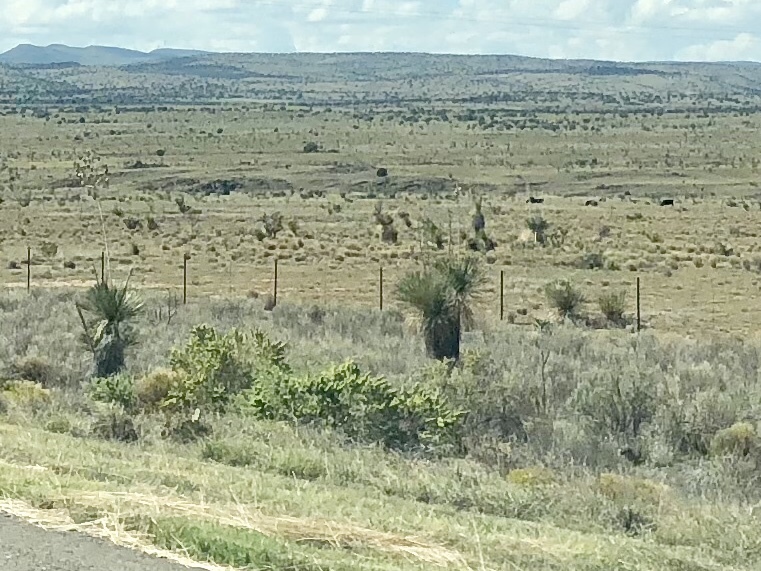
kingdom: Plantae
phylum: Tracheophyta
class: Liliopsida
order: Asparagales
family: Asparagaceae
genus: Yucca
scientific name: Yucca elata
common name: Palmella
